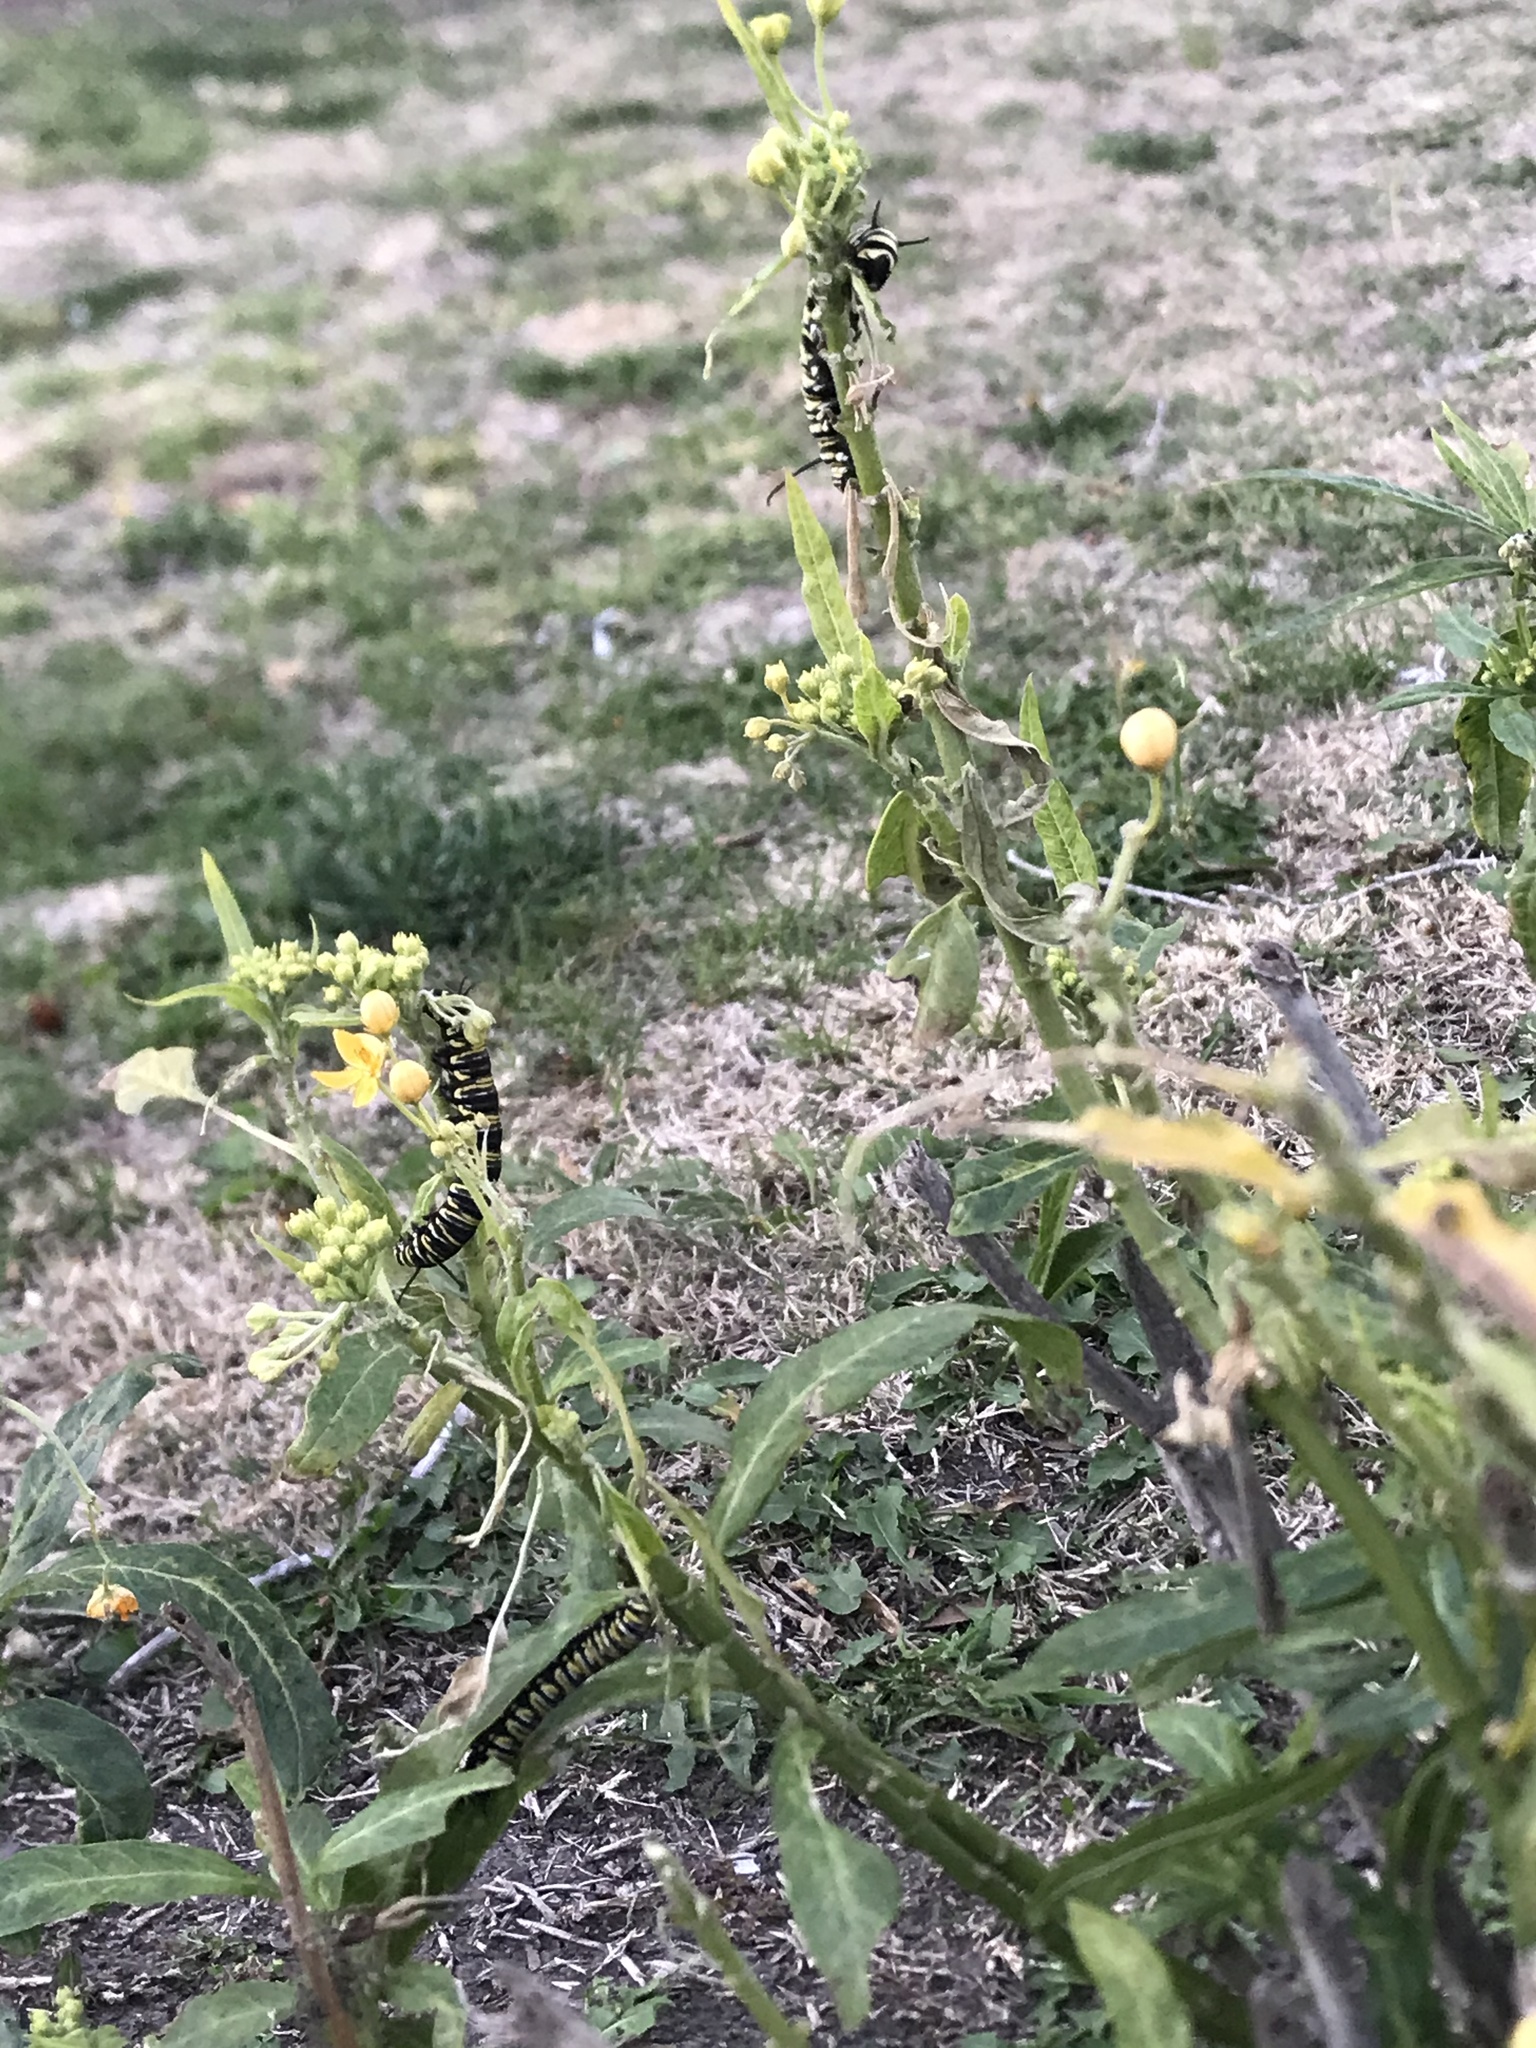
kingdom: Animalia
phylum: Arthropoda
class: Insecta
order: Lepidoptera
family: Nymphalidae
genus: Danaus
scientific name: Danaus plexippus
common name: Monarch
